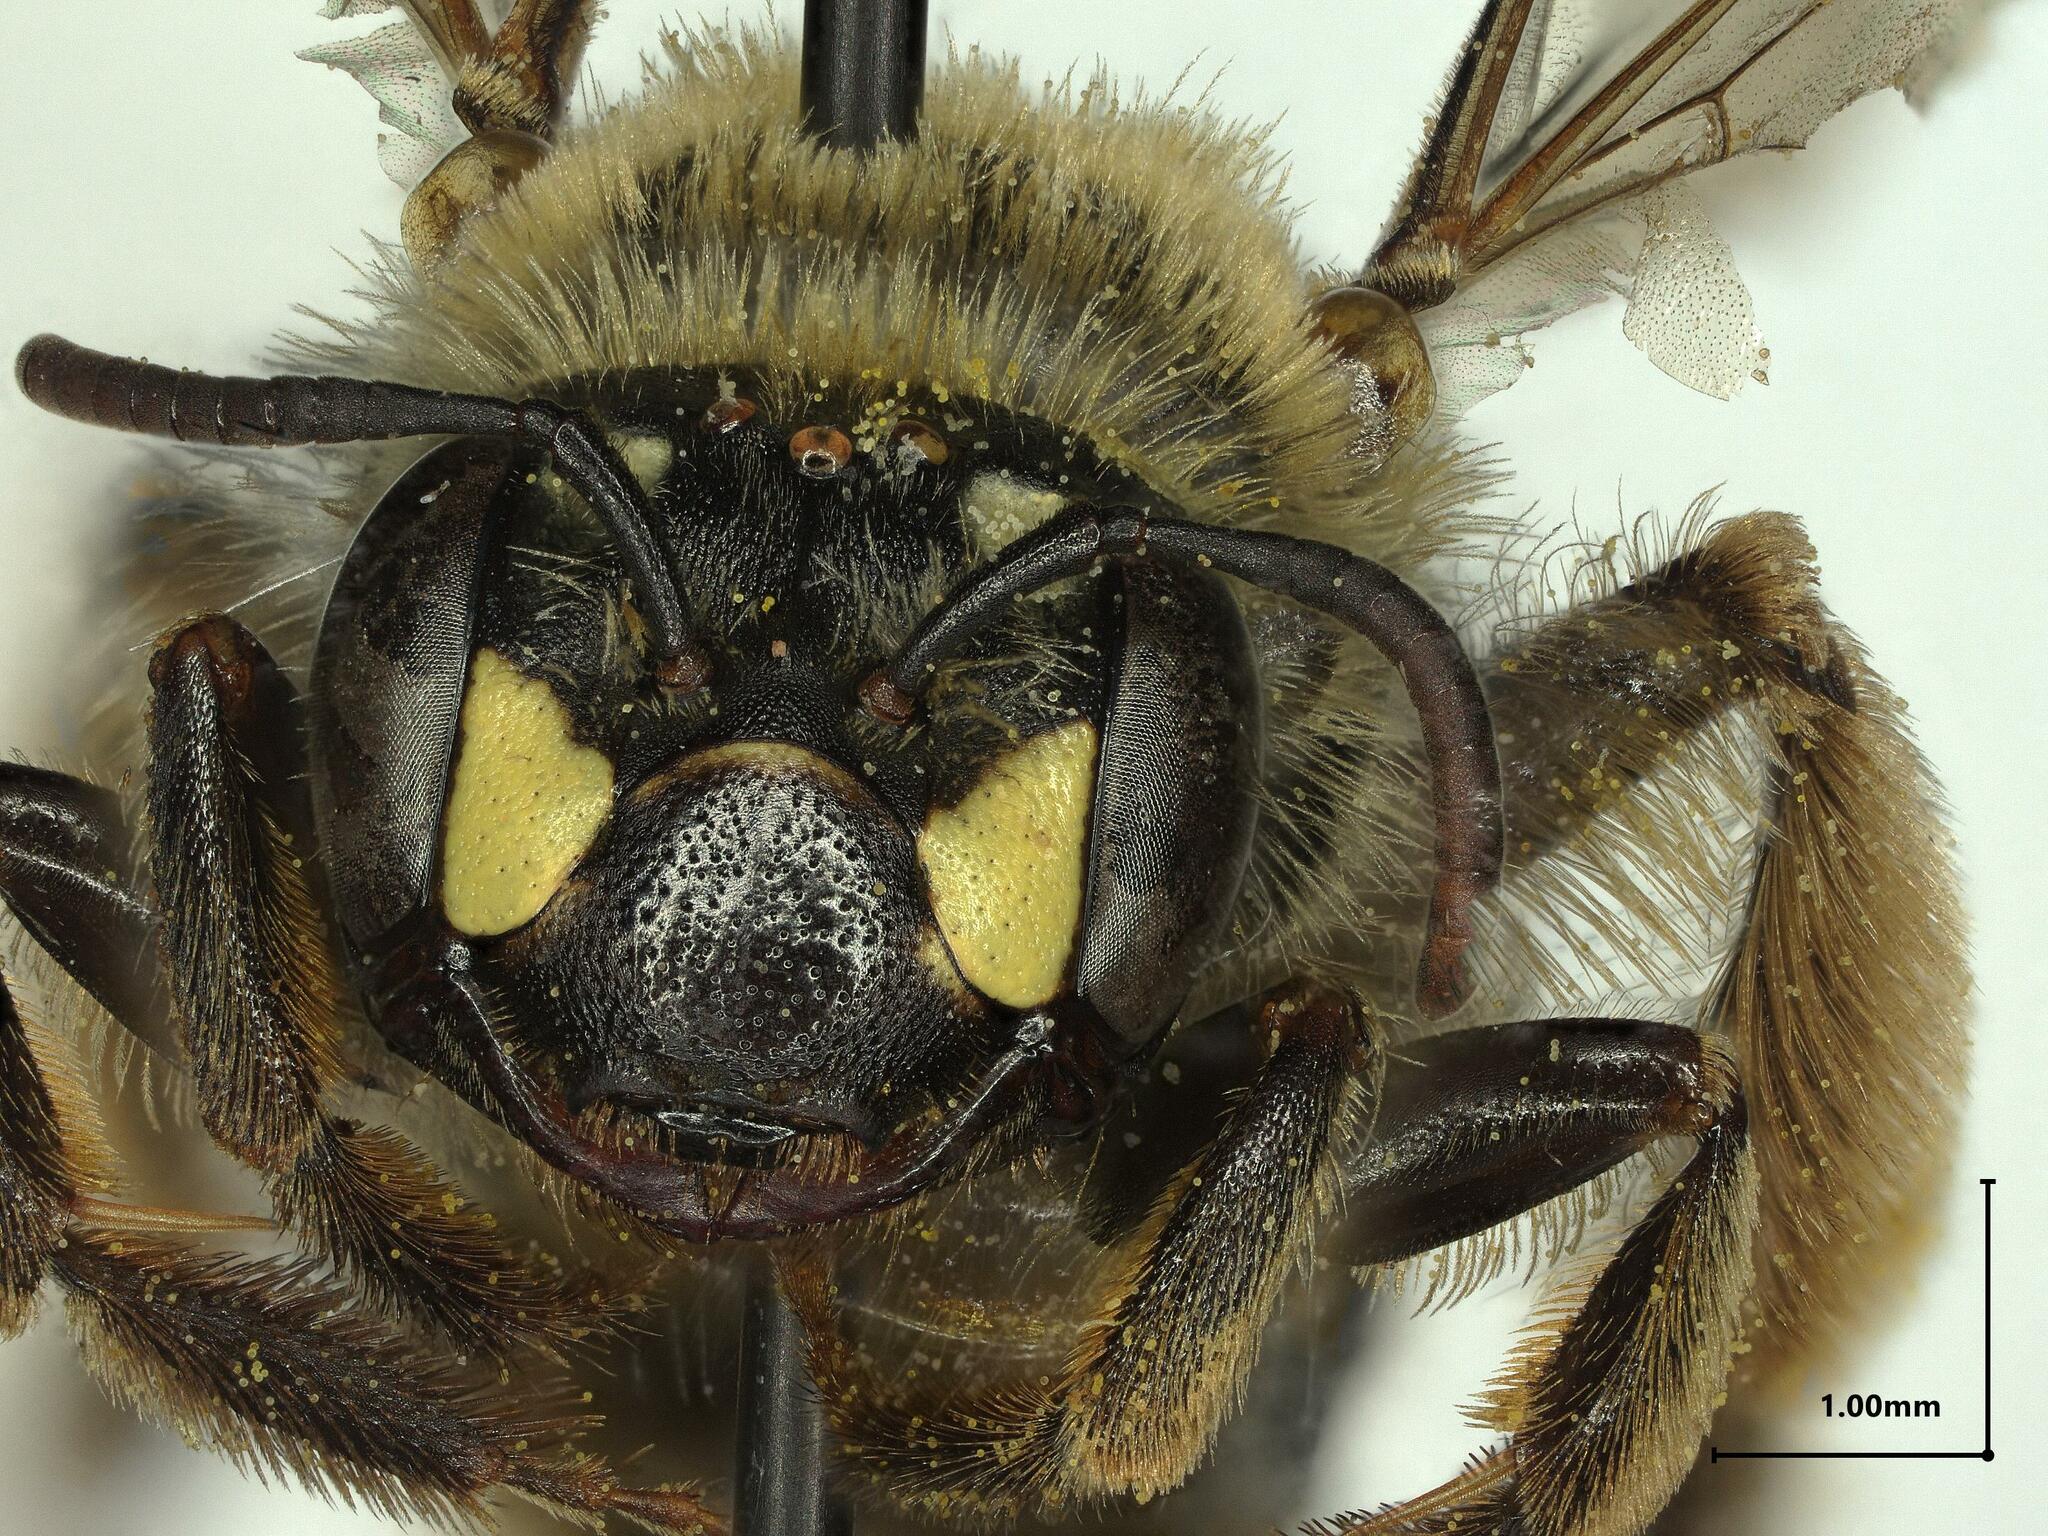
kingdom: Animalia
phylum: Arthropoda
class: Insecta
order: Hymenoptera
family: Andrenidae
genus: Andrena
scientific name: Andrena accepta
